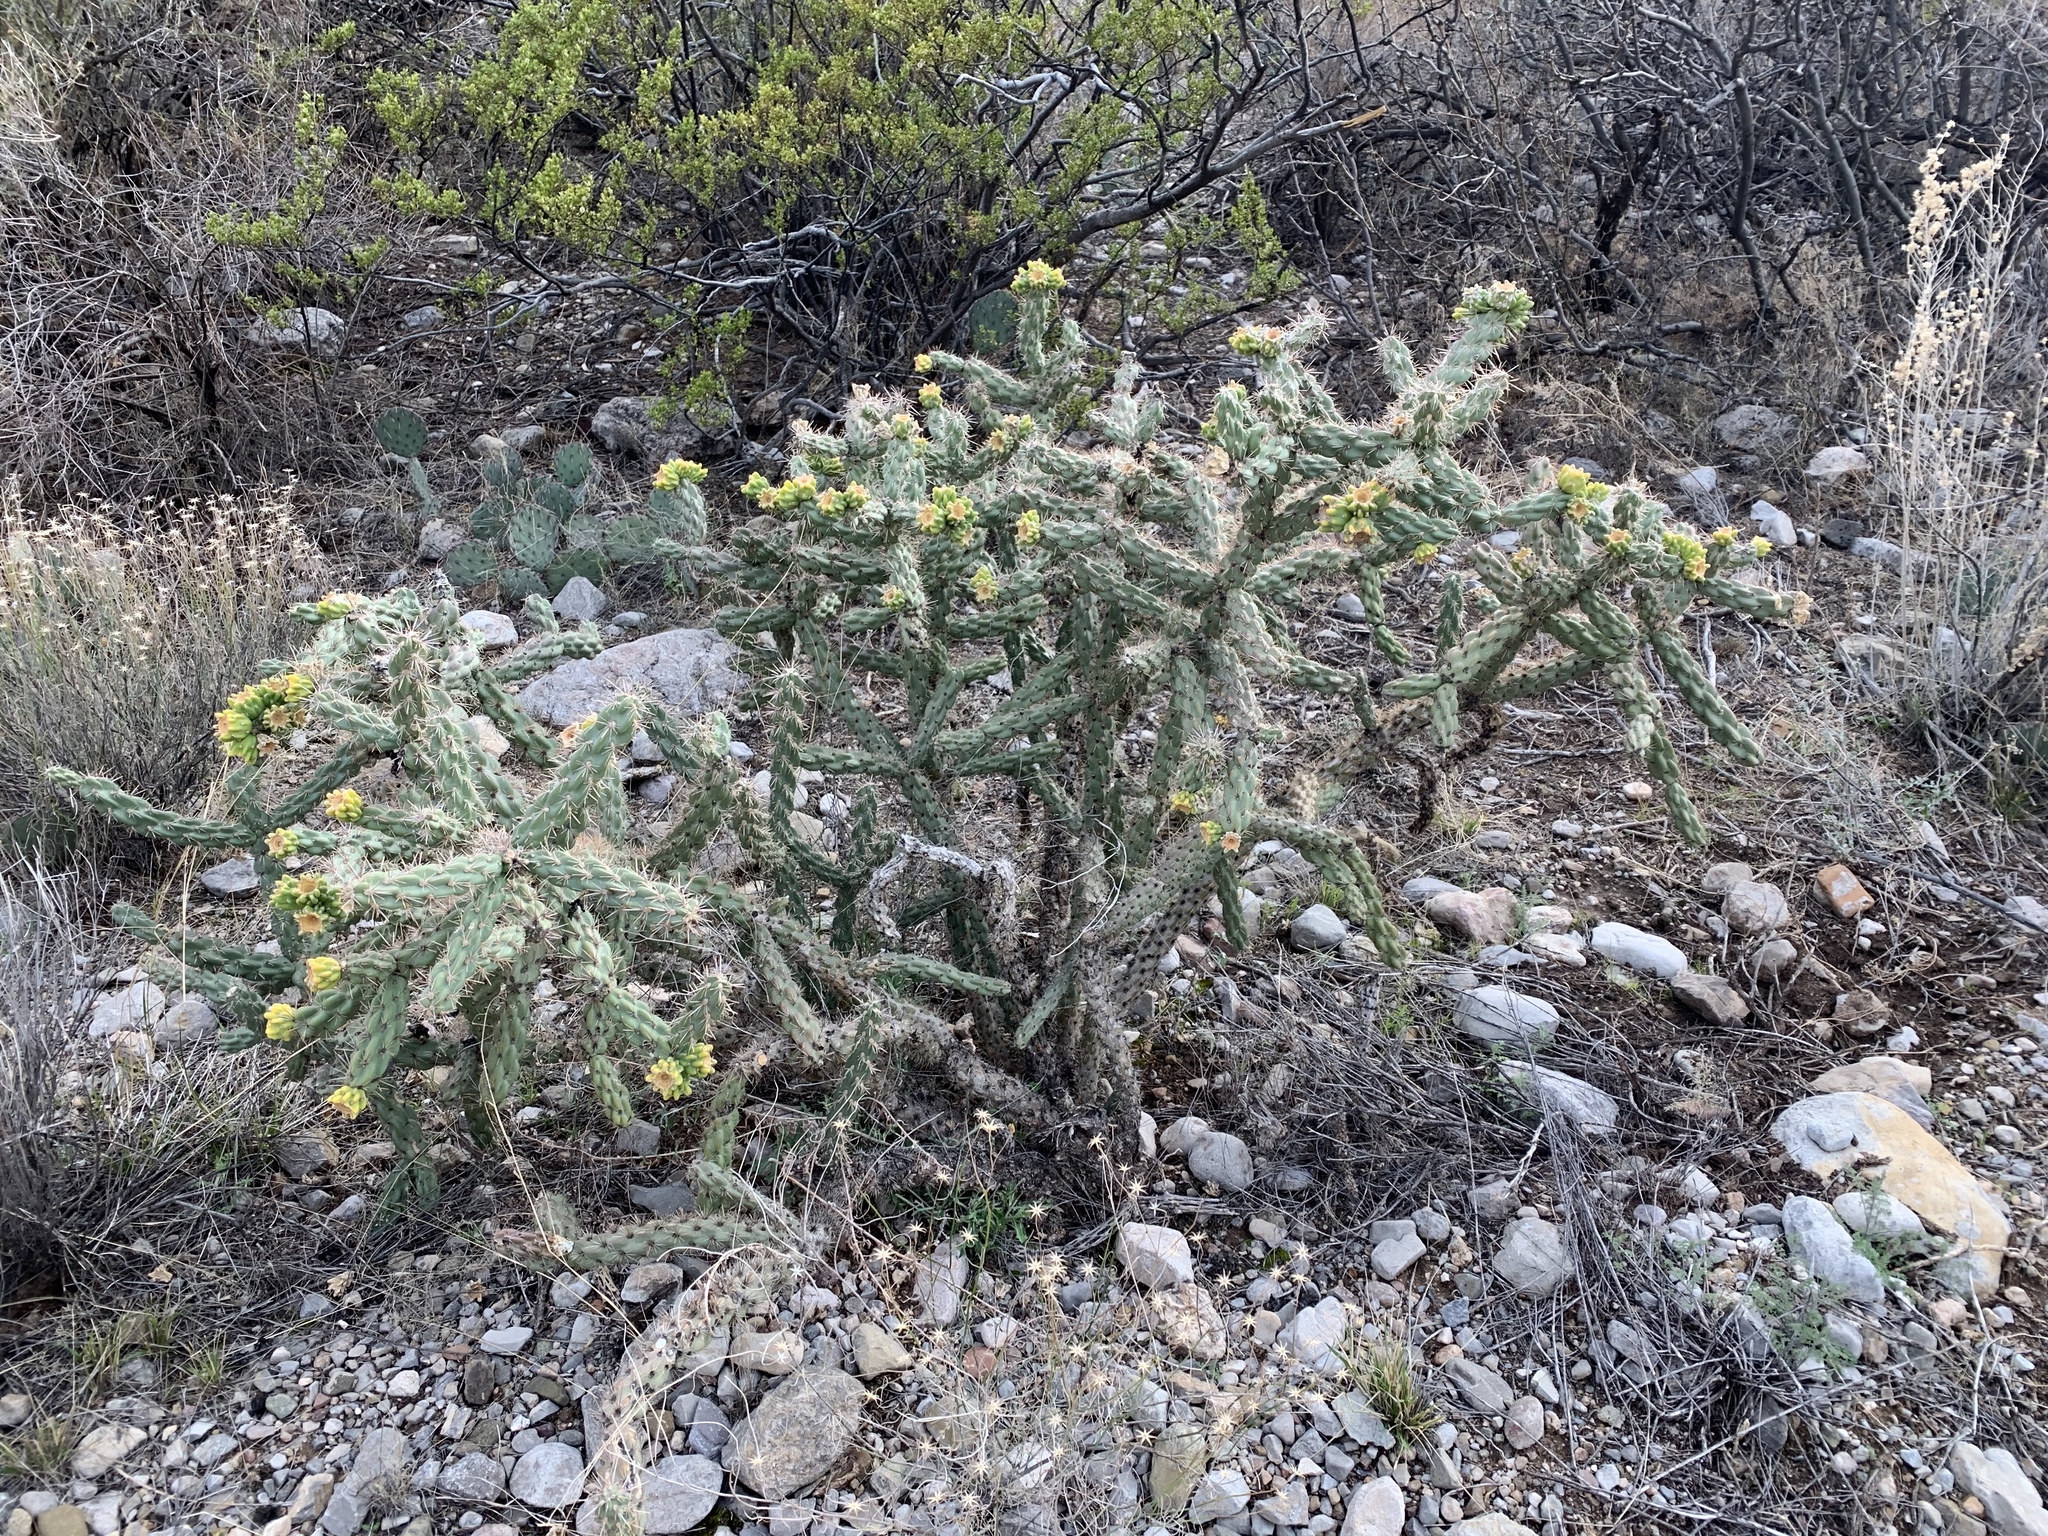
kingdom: Plantae
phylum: Tracheophyta
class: Magnoliopsida
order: Caryophyllales
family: Cactaceae
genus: Cylindropuntia
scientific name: Cylindropuntia imbricata
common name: Candelabrum cactus
